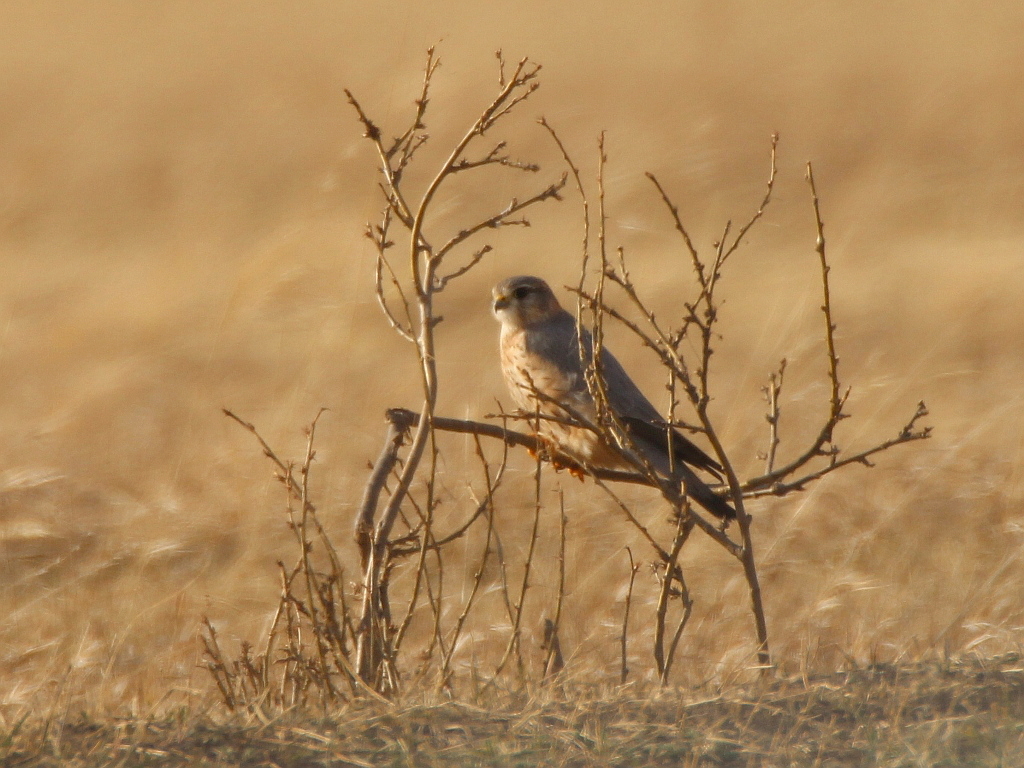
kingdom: Animalia
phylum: Chordata
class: Aves
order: Falconiformes
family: Falconidae
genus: Falco
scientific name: Falco columbarius
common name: Merlin
